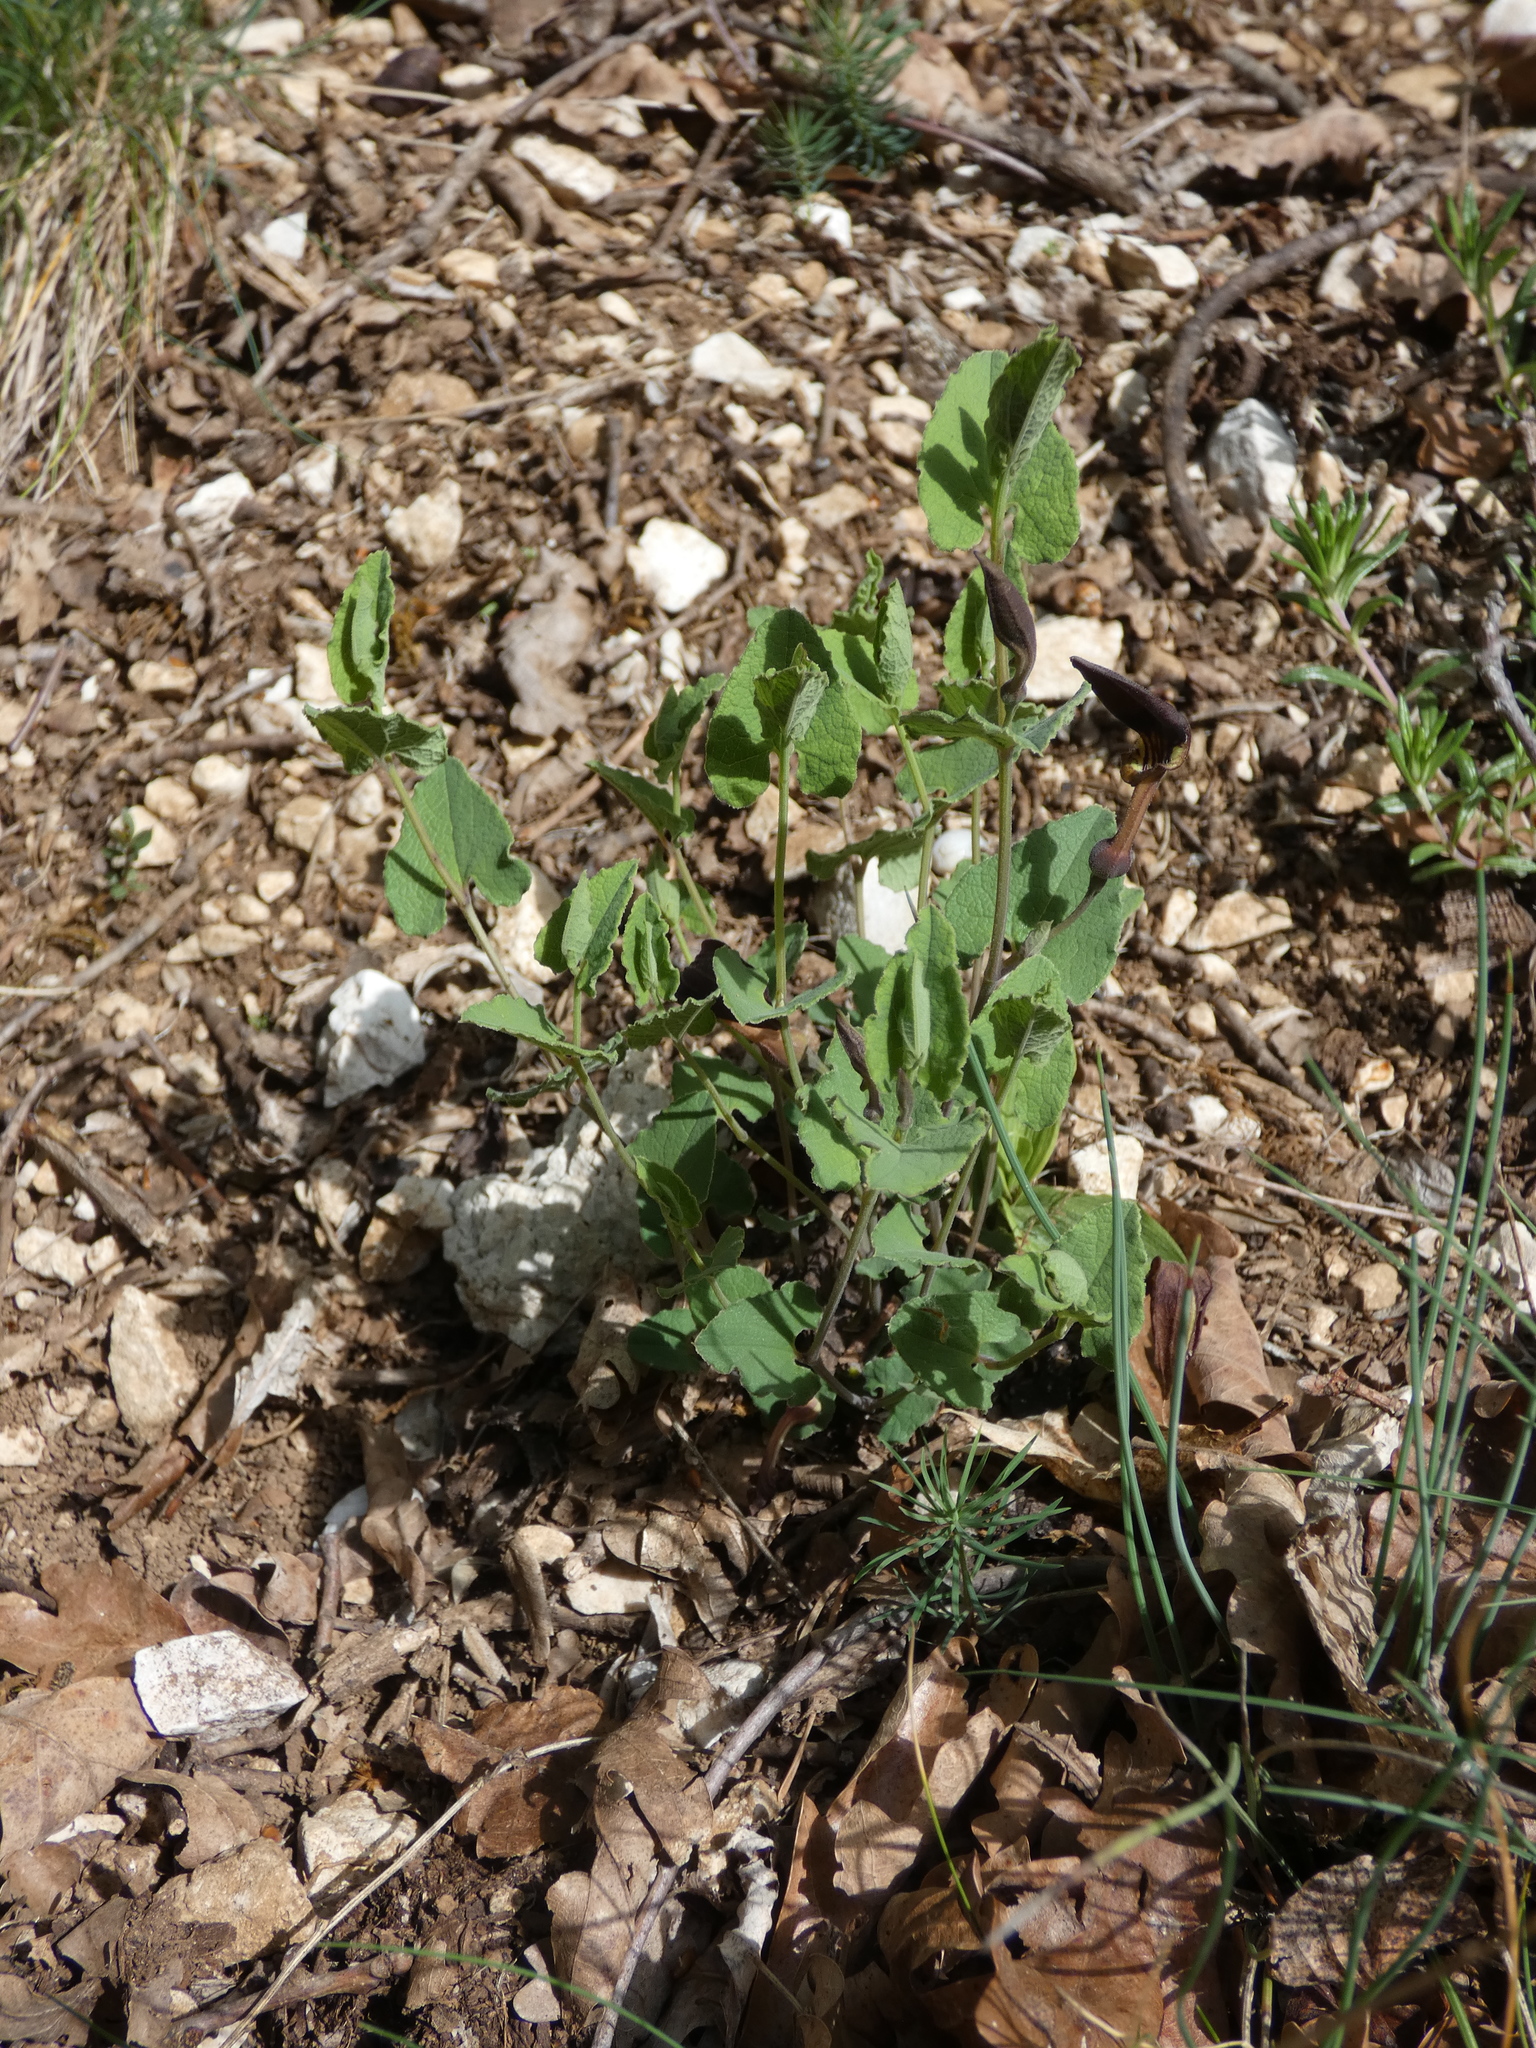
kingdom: Plantae
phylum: Tracheophyta
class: Magnoliopsida
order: Piperales
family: Aristolochiaceae
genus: Aristolochia
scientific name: Aristolochia pistolochia
